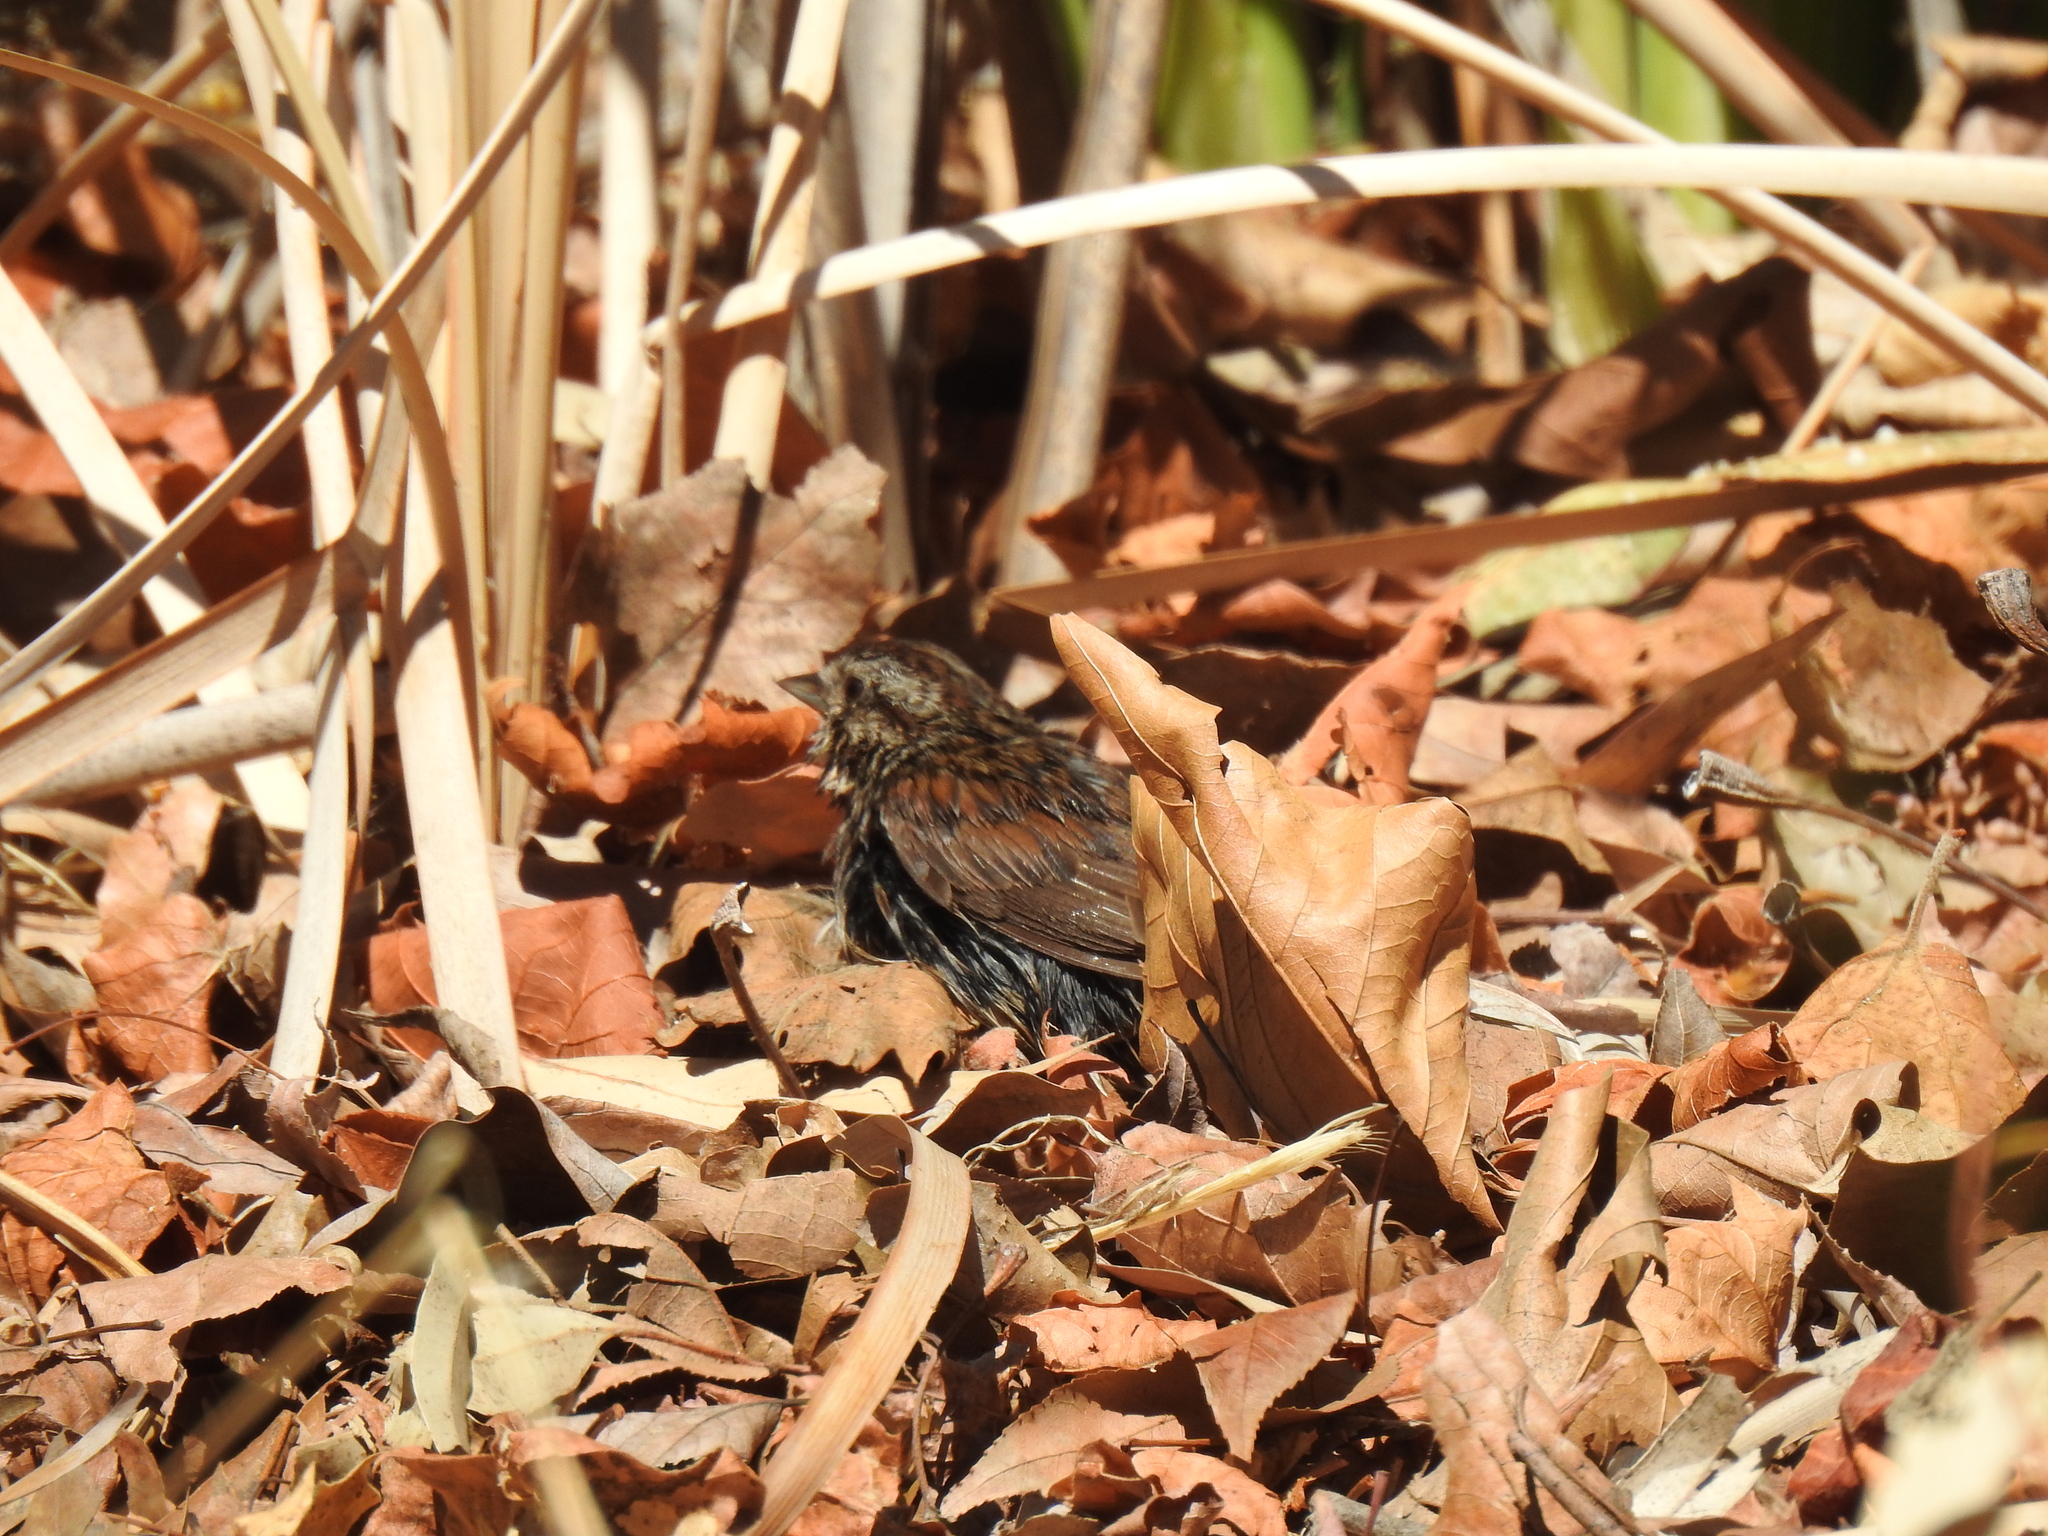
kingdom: Animalia
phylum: Chordata
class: Aves
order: Passeriformes
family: Passerellidae
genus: Melospiza
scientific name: Melospiza melodia
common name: Song sparrow
